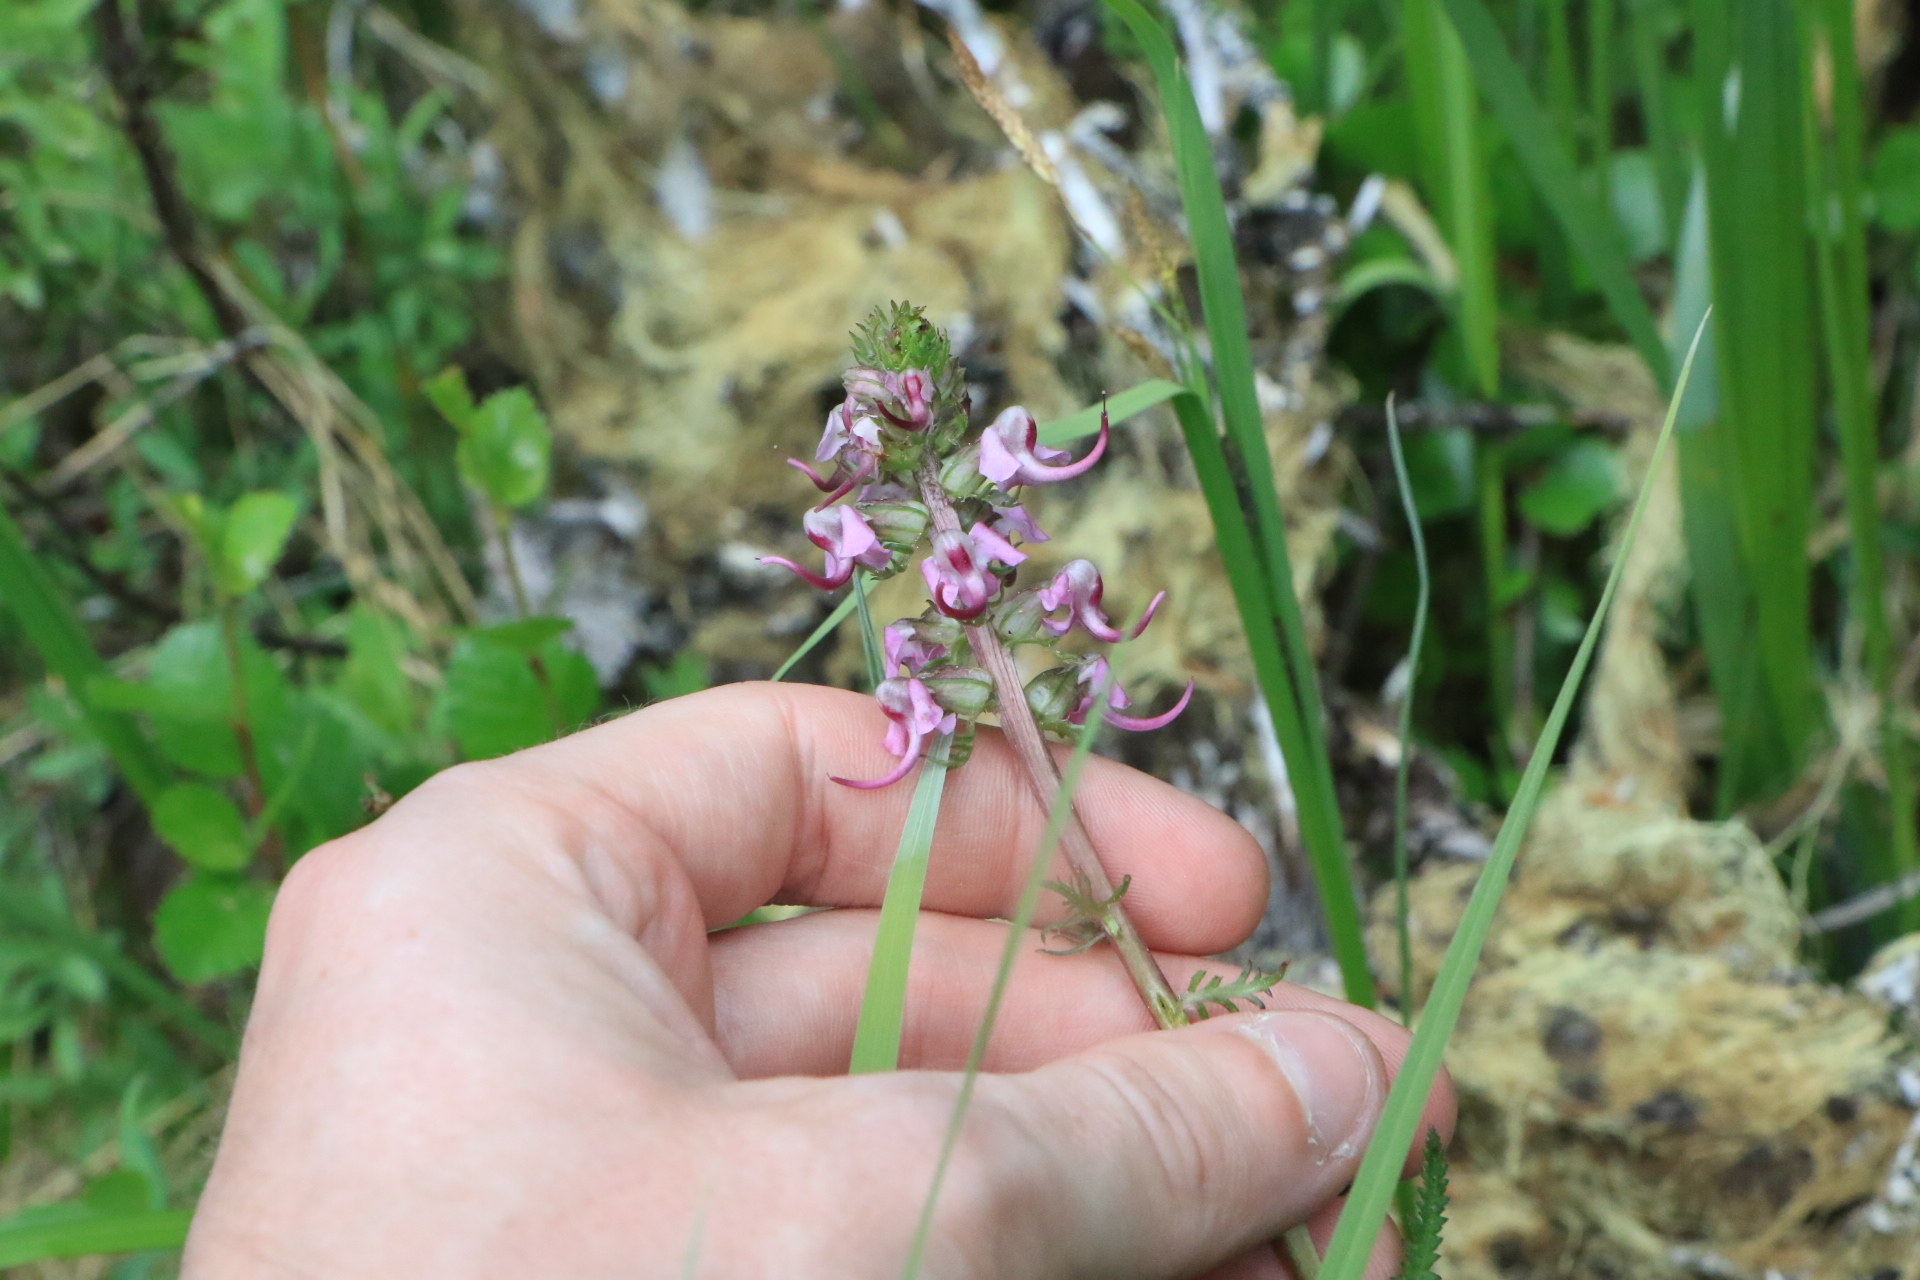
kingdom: Plantae
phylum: Tracheophyta
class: Magnoliopsida
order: Lamiales
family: Orobanchaceae
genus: Pedicularis
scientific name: Pedicularis groenlandica
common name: Elephant's-head
